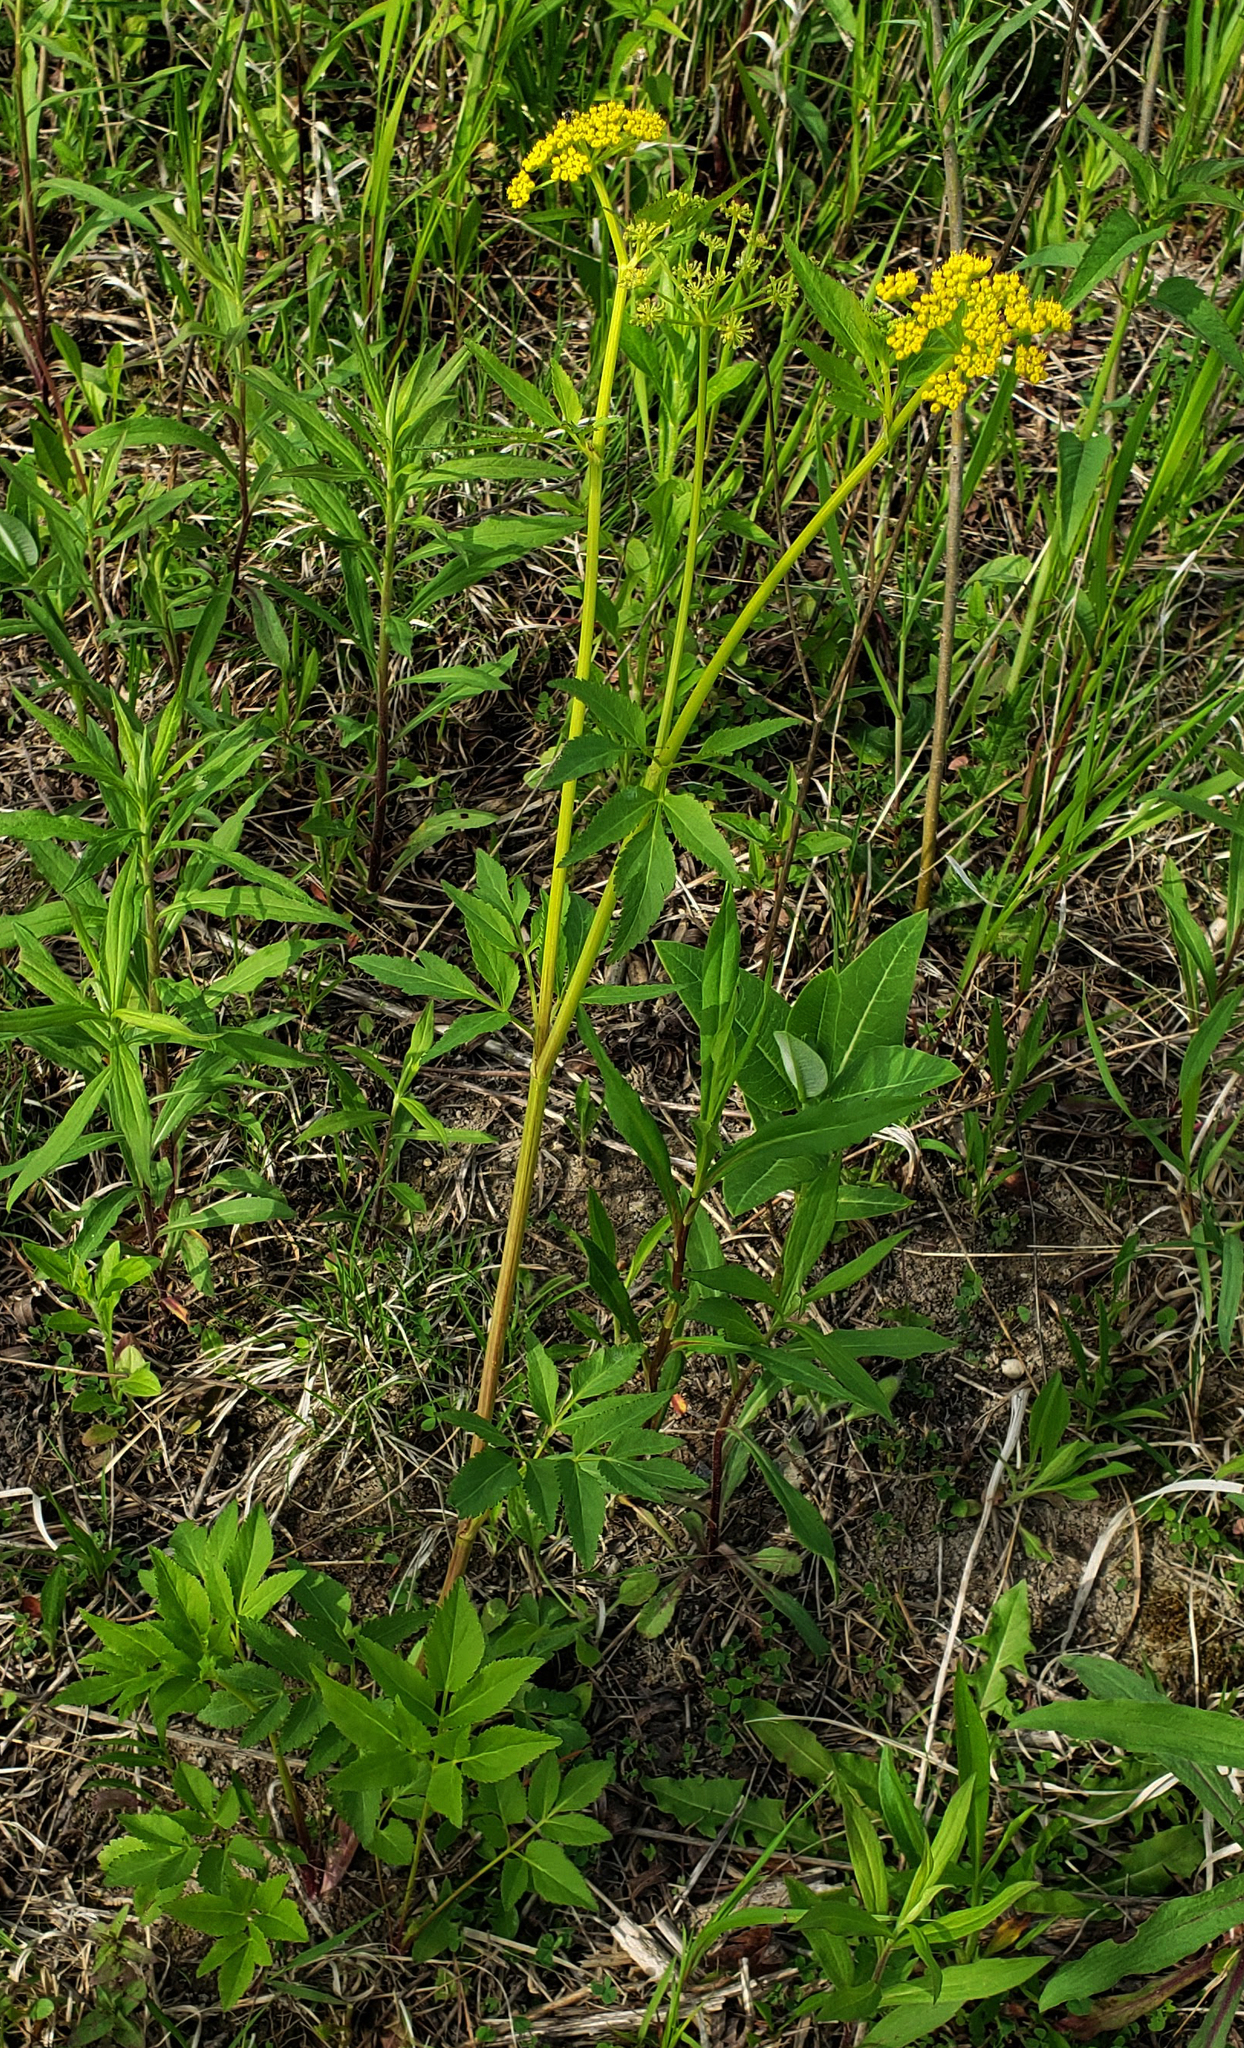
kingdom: Plantae
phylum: Tracheophyta
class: Magnoliopsida
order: Apiales
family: Apiaceae
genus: Zizia
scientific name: Zizia aurea
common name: Golden alexanders
